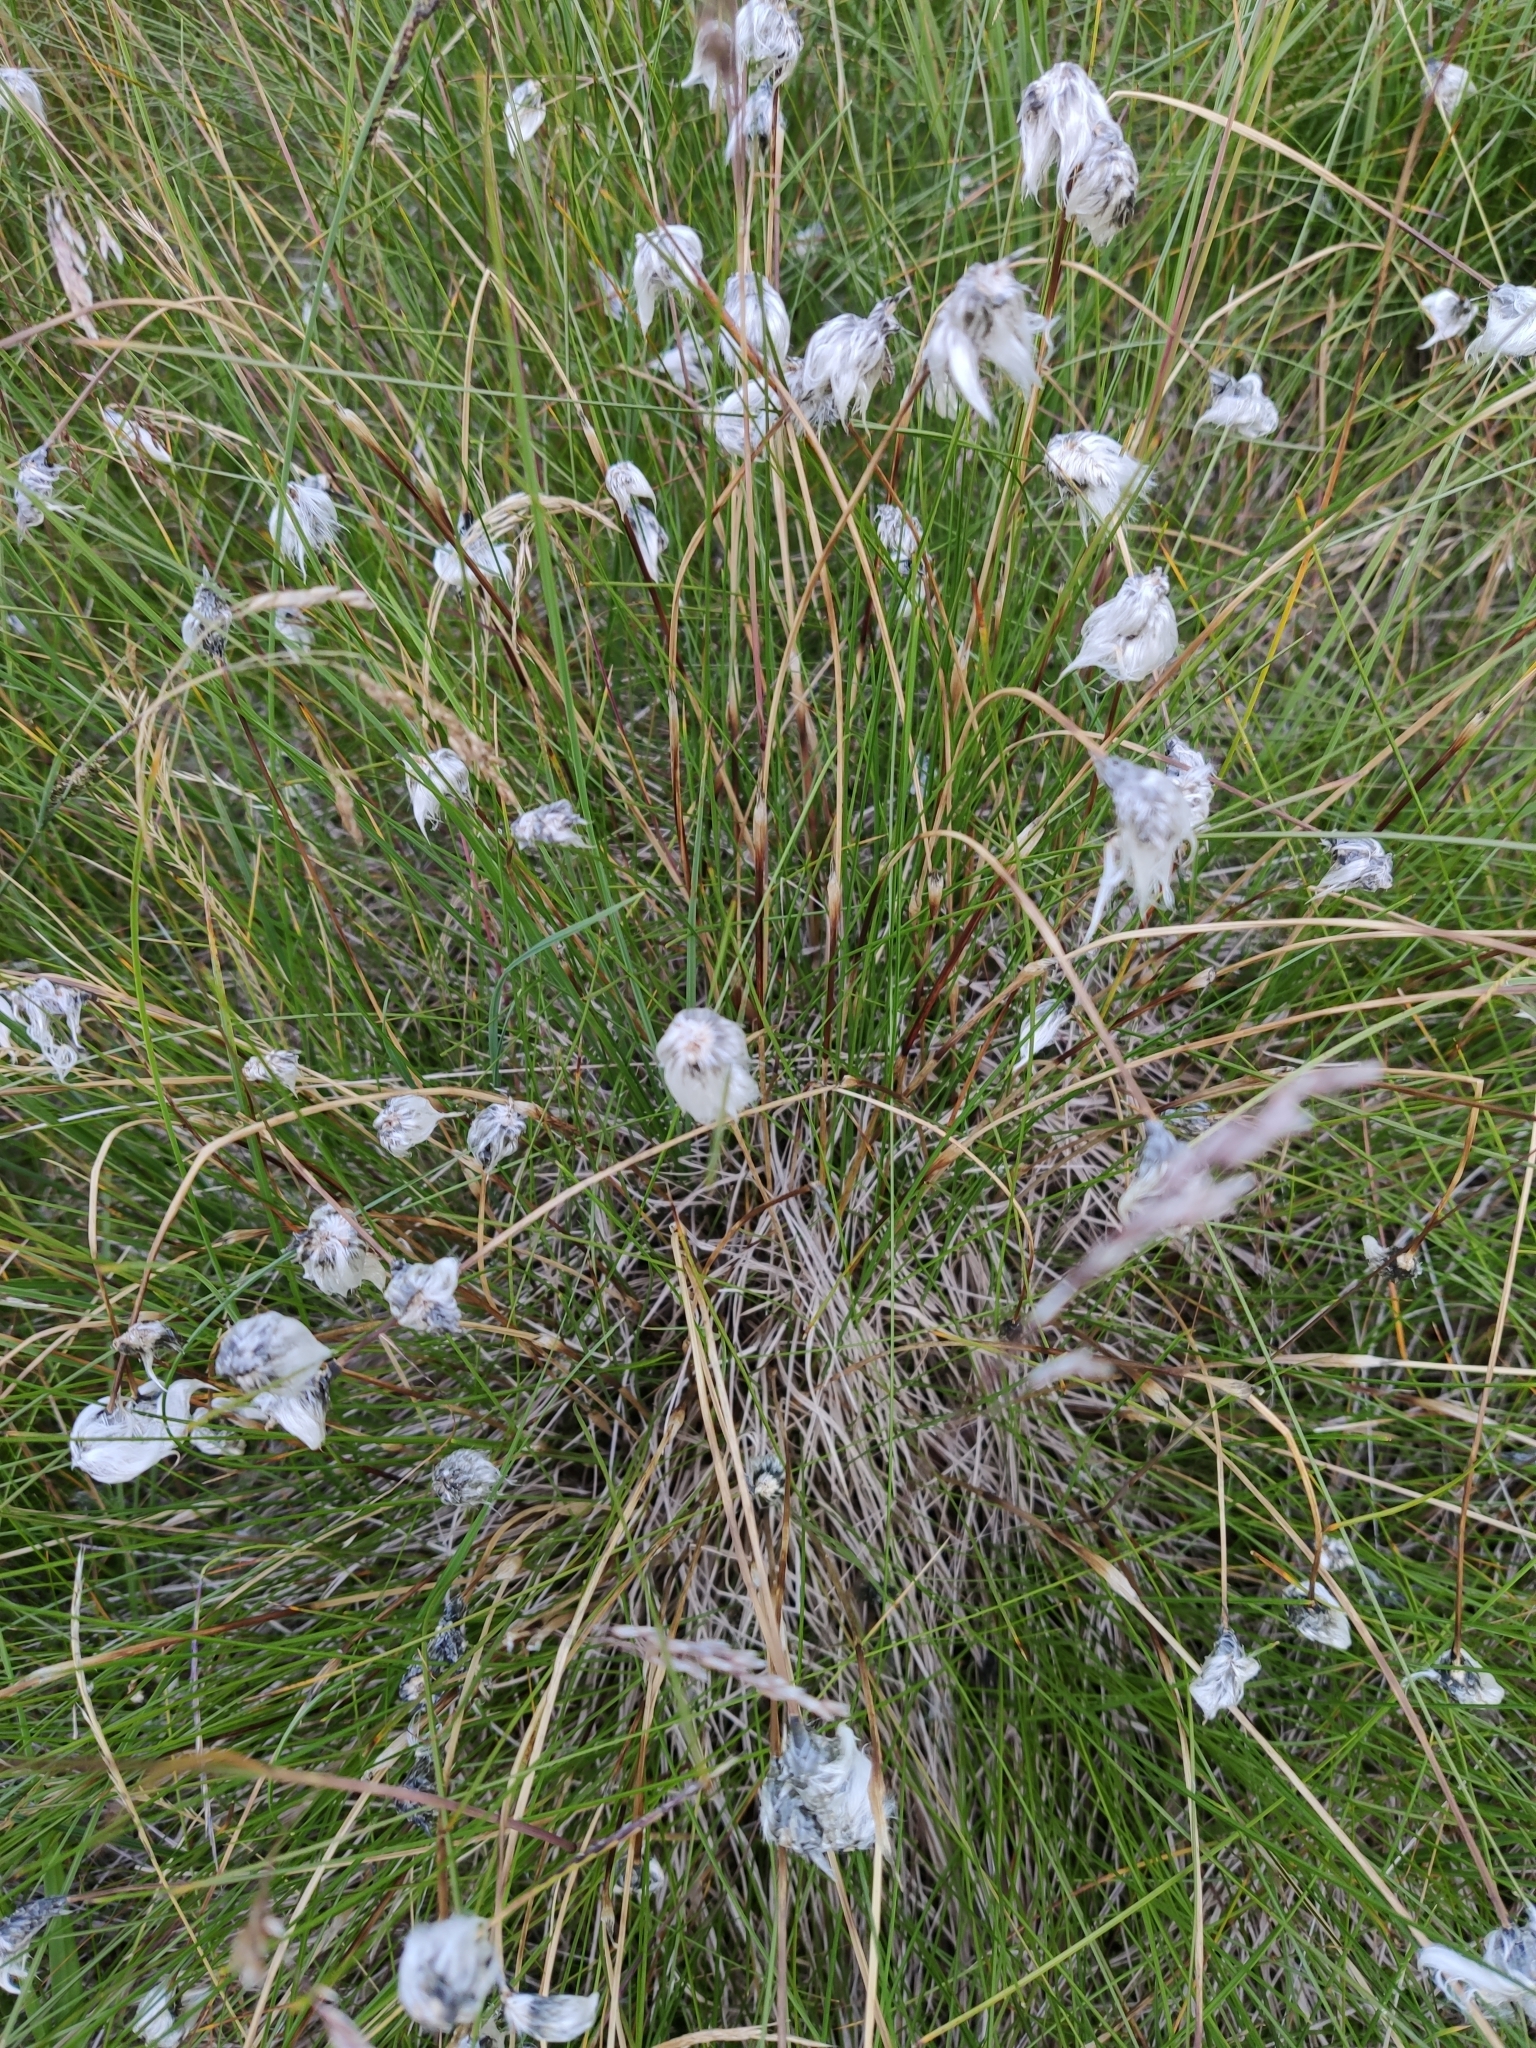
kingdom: Plantae
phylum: Tracheophyta
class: Liliopsida
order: Poales
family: Cyperaceae
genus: Eriophorum
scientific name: Eriophorum vaginatum
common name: Hare's-tail cottongrass
